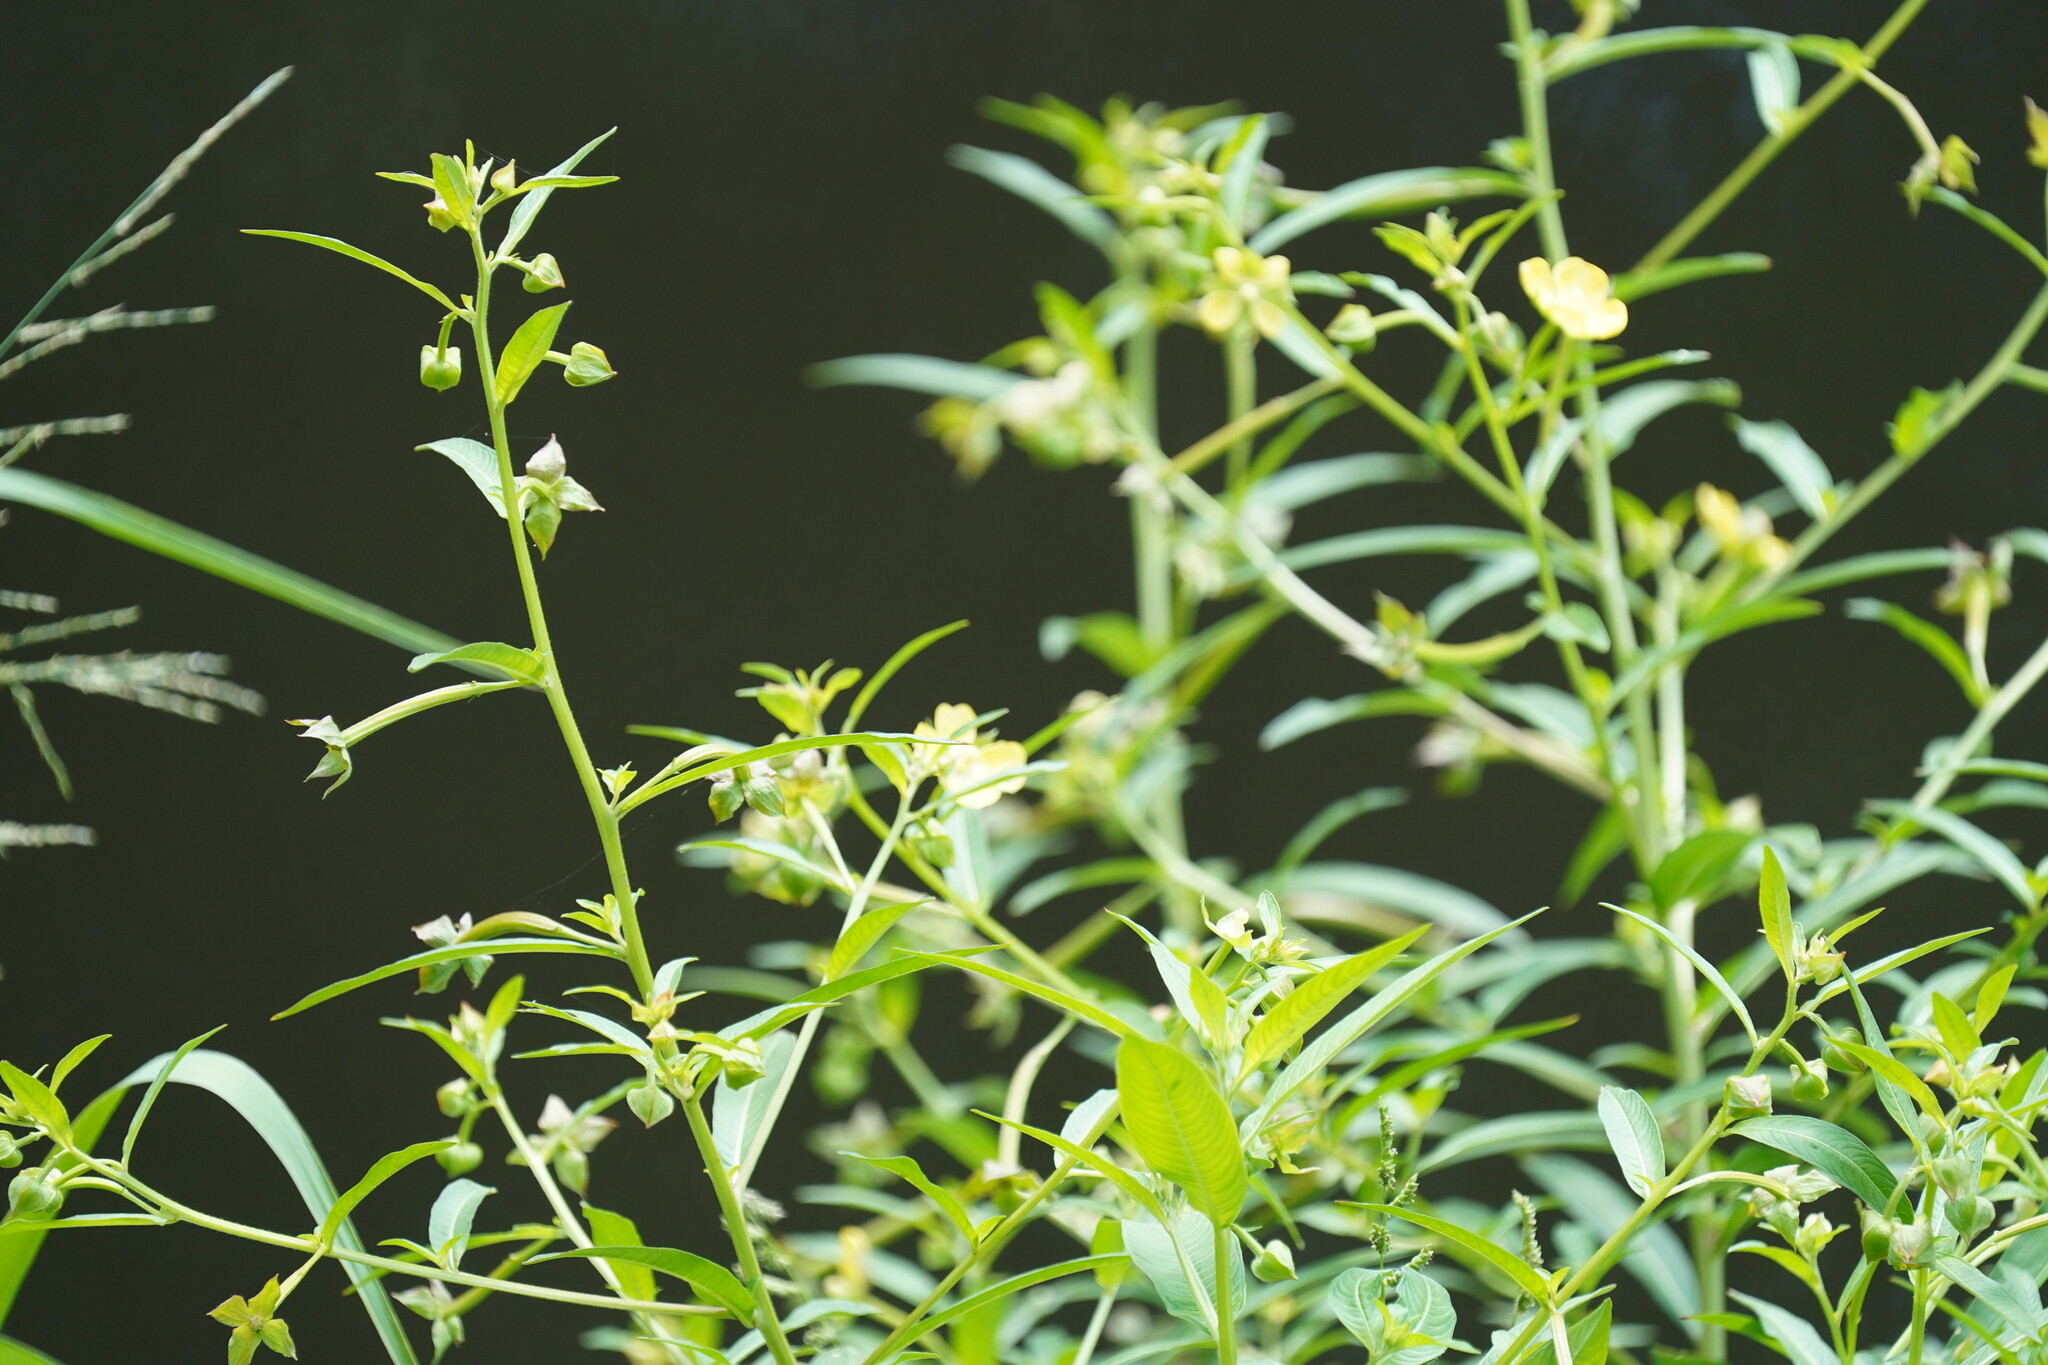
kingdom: Plantae
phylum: Tracheophyta
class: Magnoliopsida
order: Myrtales
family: Onagraceae
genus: Ludwigia
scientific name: Ludwigia octovalvis
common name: Water-primrose
